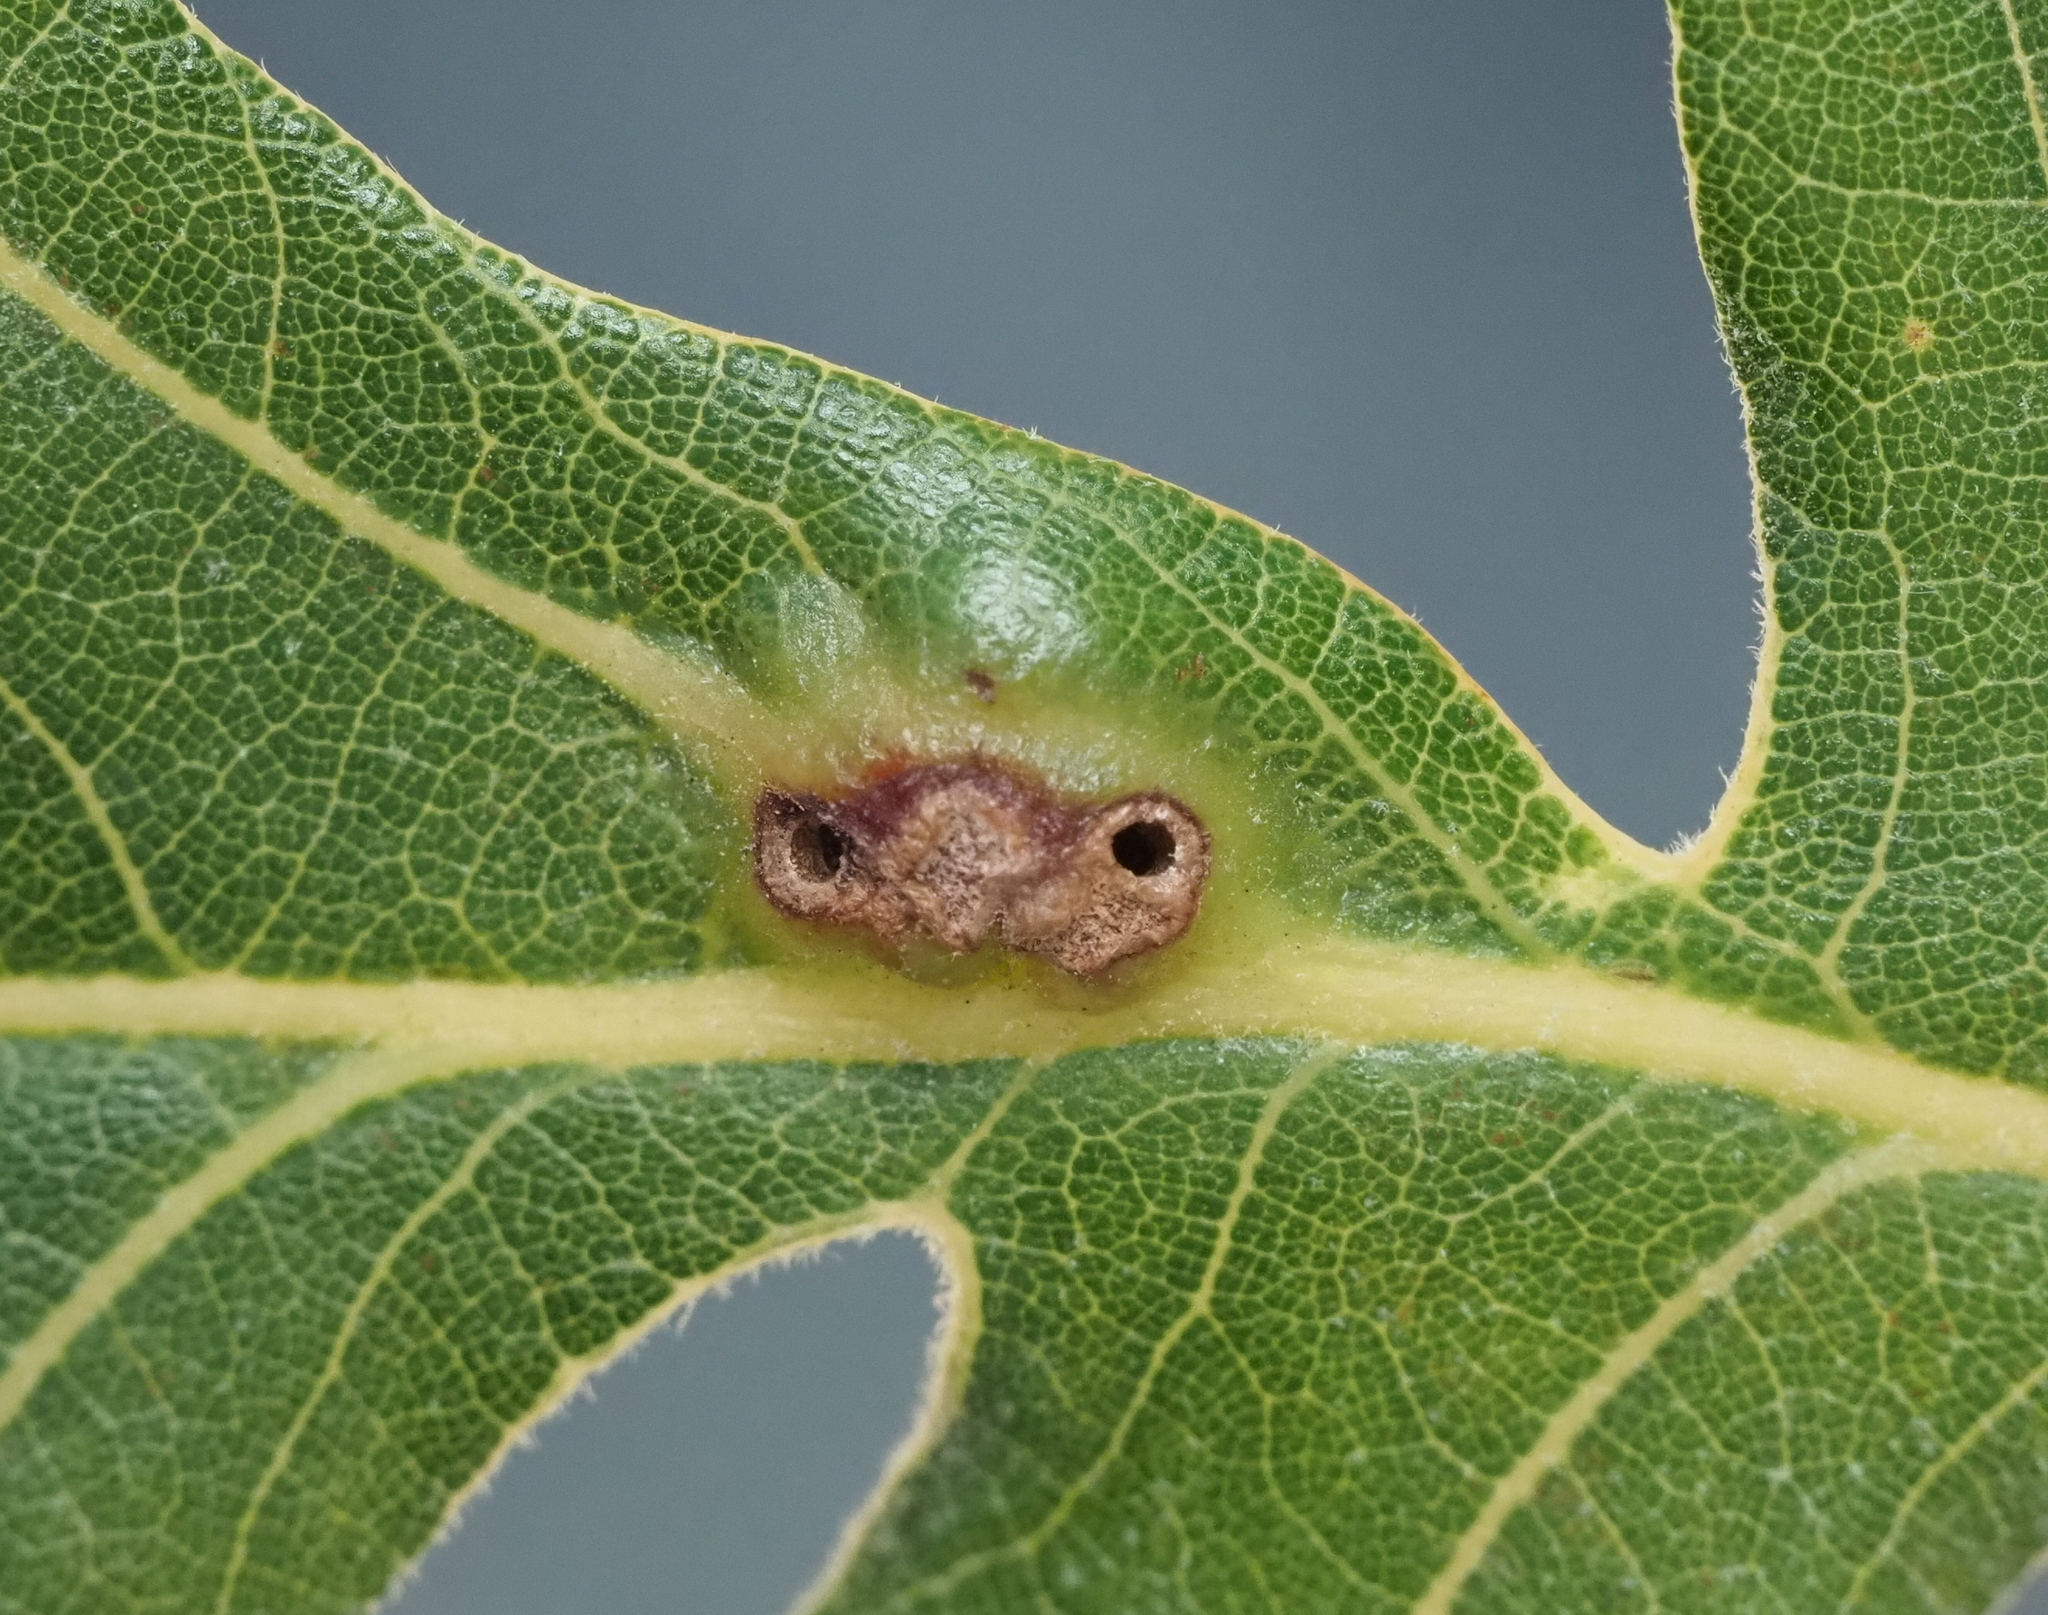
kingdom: Animalia
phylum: Arthropoda
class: Insecta
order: Hymenoptera
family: Cynipidae
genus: Bassettia
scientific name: Bassettia flavipes
